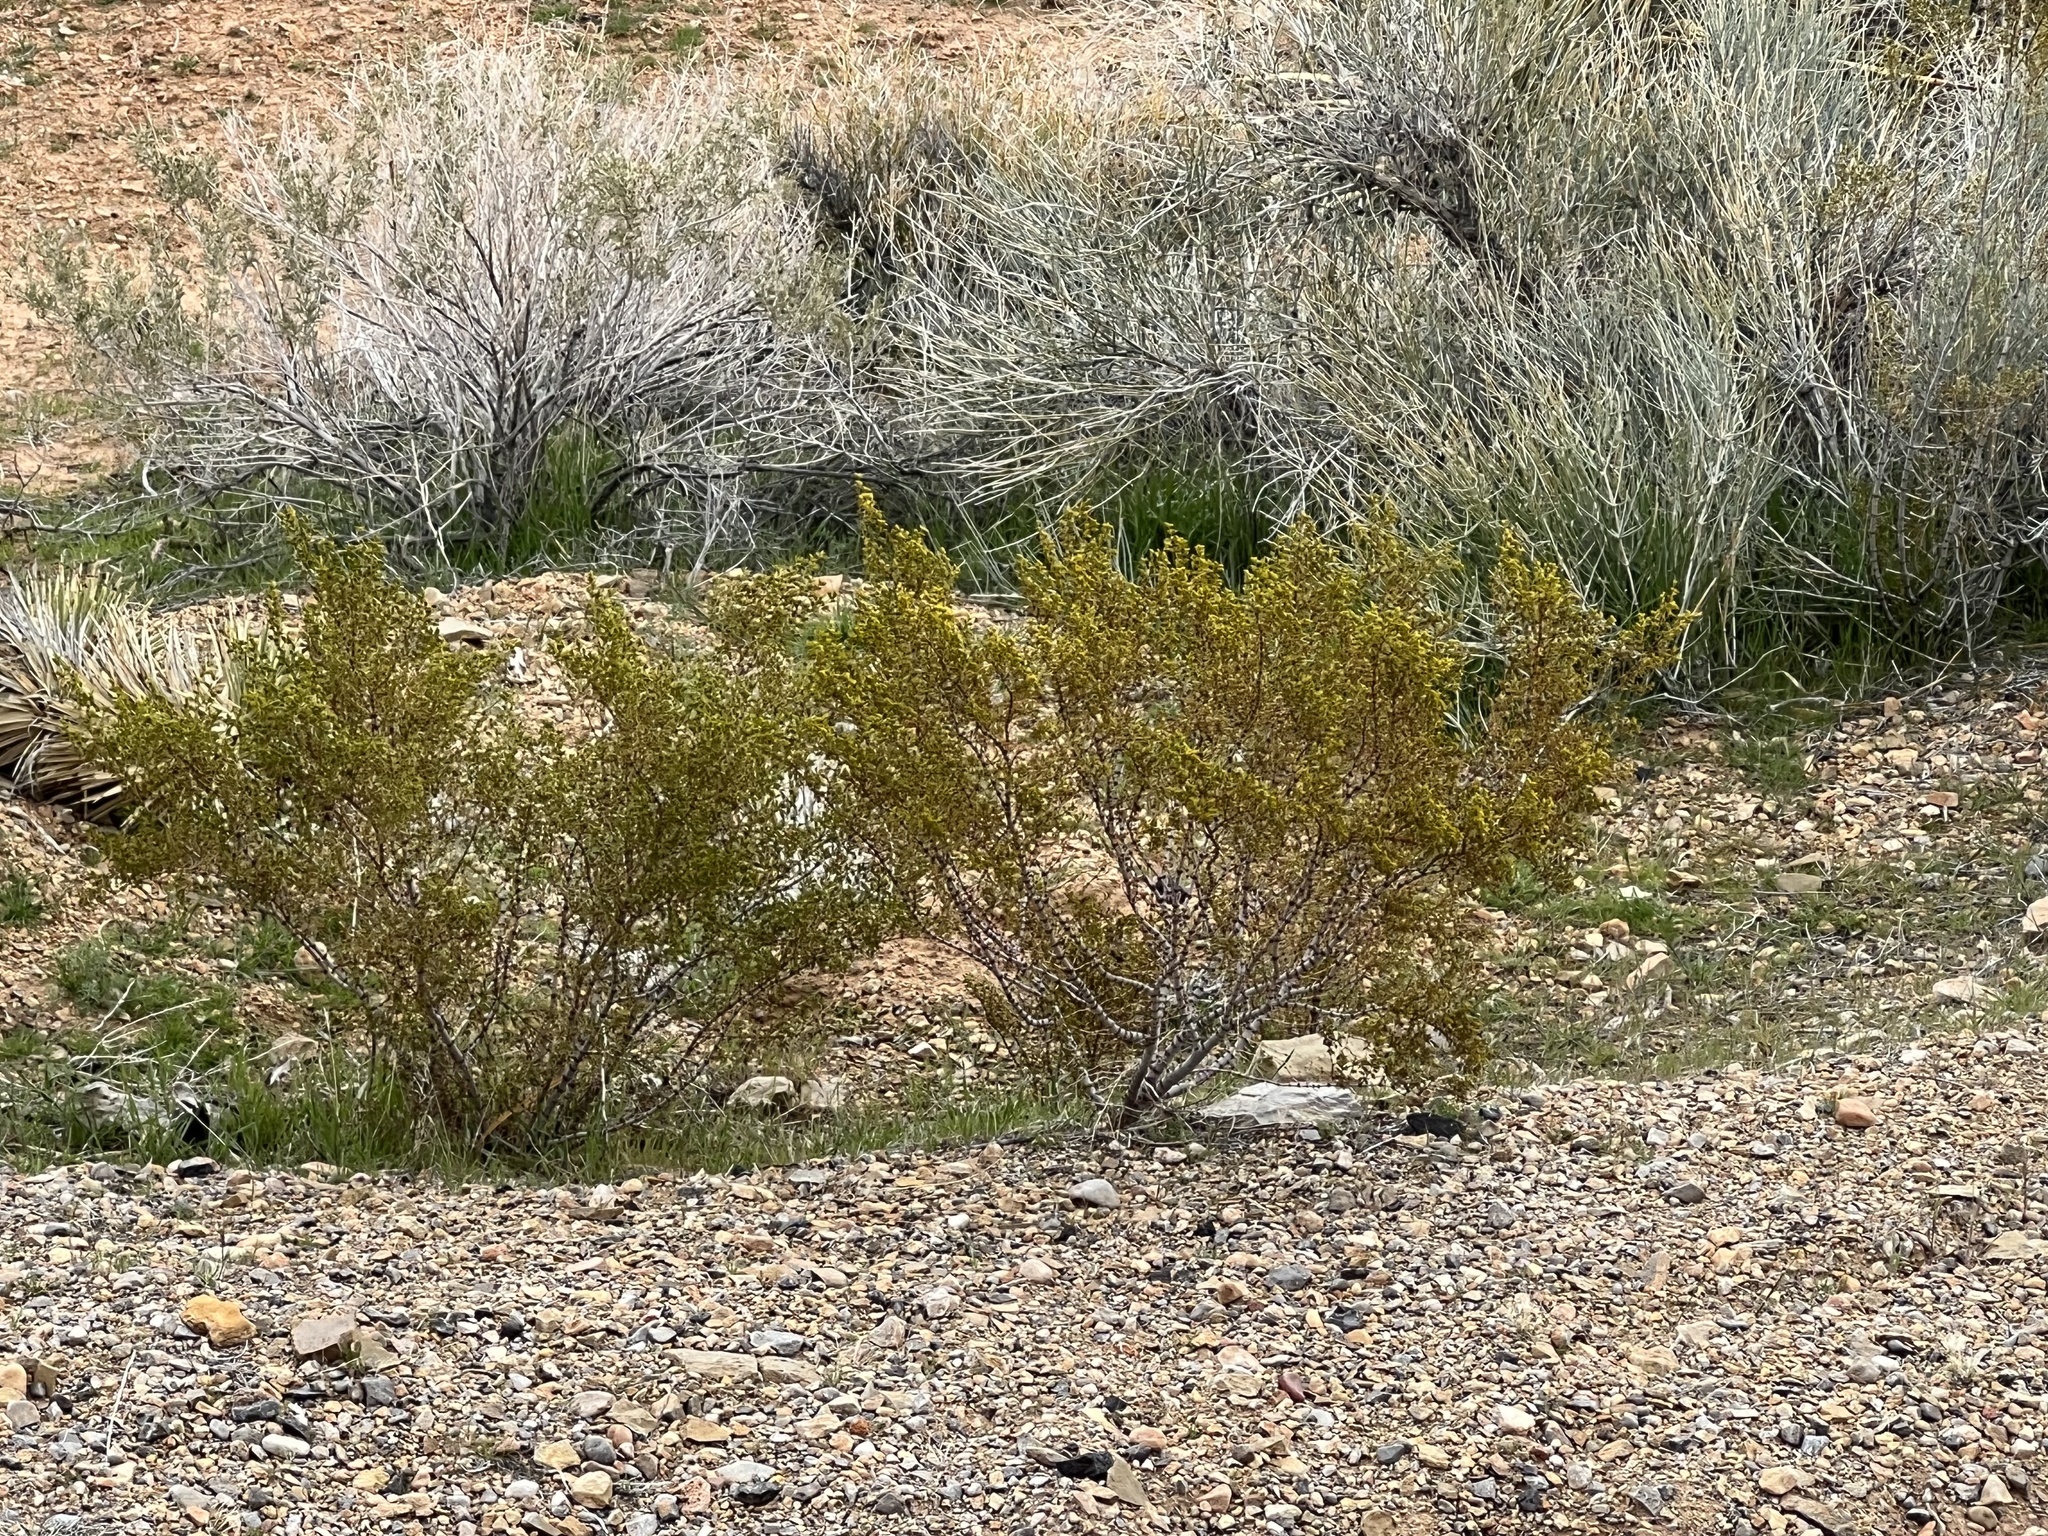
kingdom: Plantae
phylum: Tracheophyta
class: Magnoliopsida
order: Zygophyllales
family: Zygophyllaceae
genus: Larrea
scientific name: Larrea tridentata
